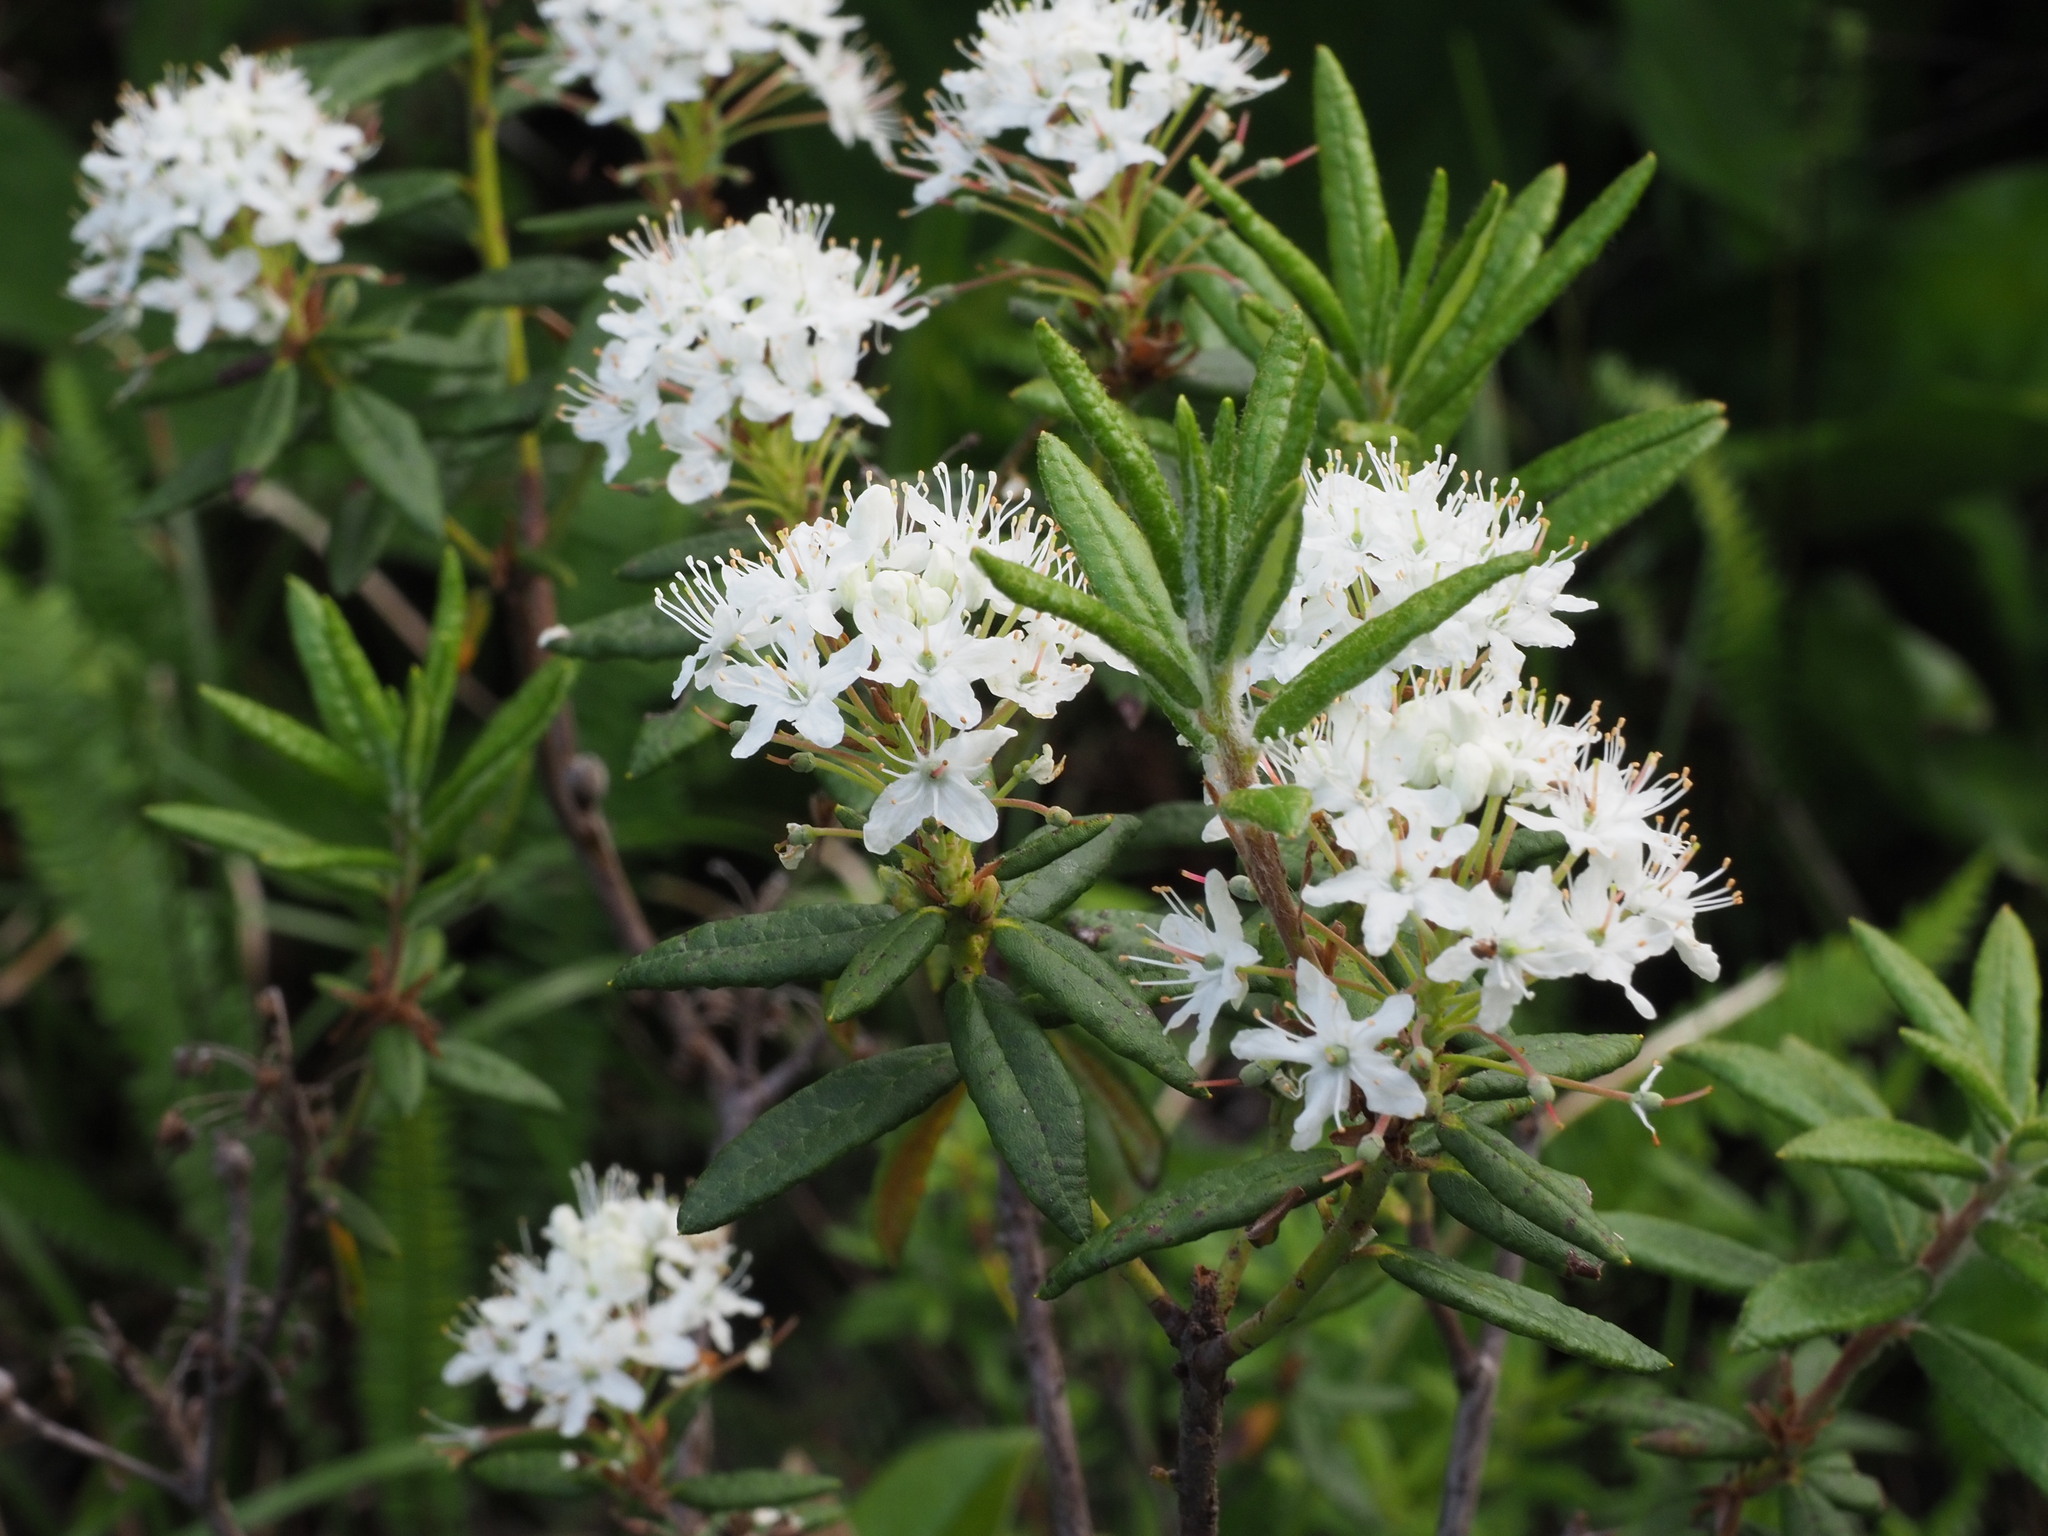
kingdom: Plantae
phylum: Tracheophyta
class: Magnoliopsida
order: Ericales
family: Ericaceae
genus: Rhododendron
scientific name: Rhododendron groenlandicum
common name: Bog labrador tea
